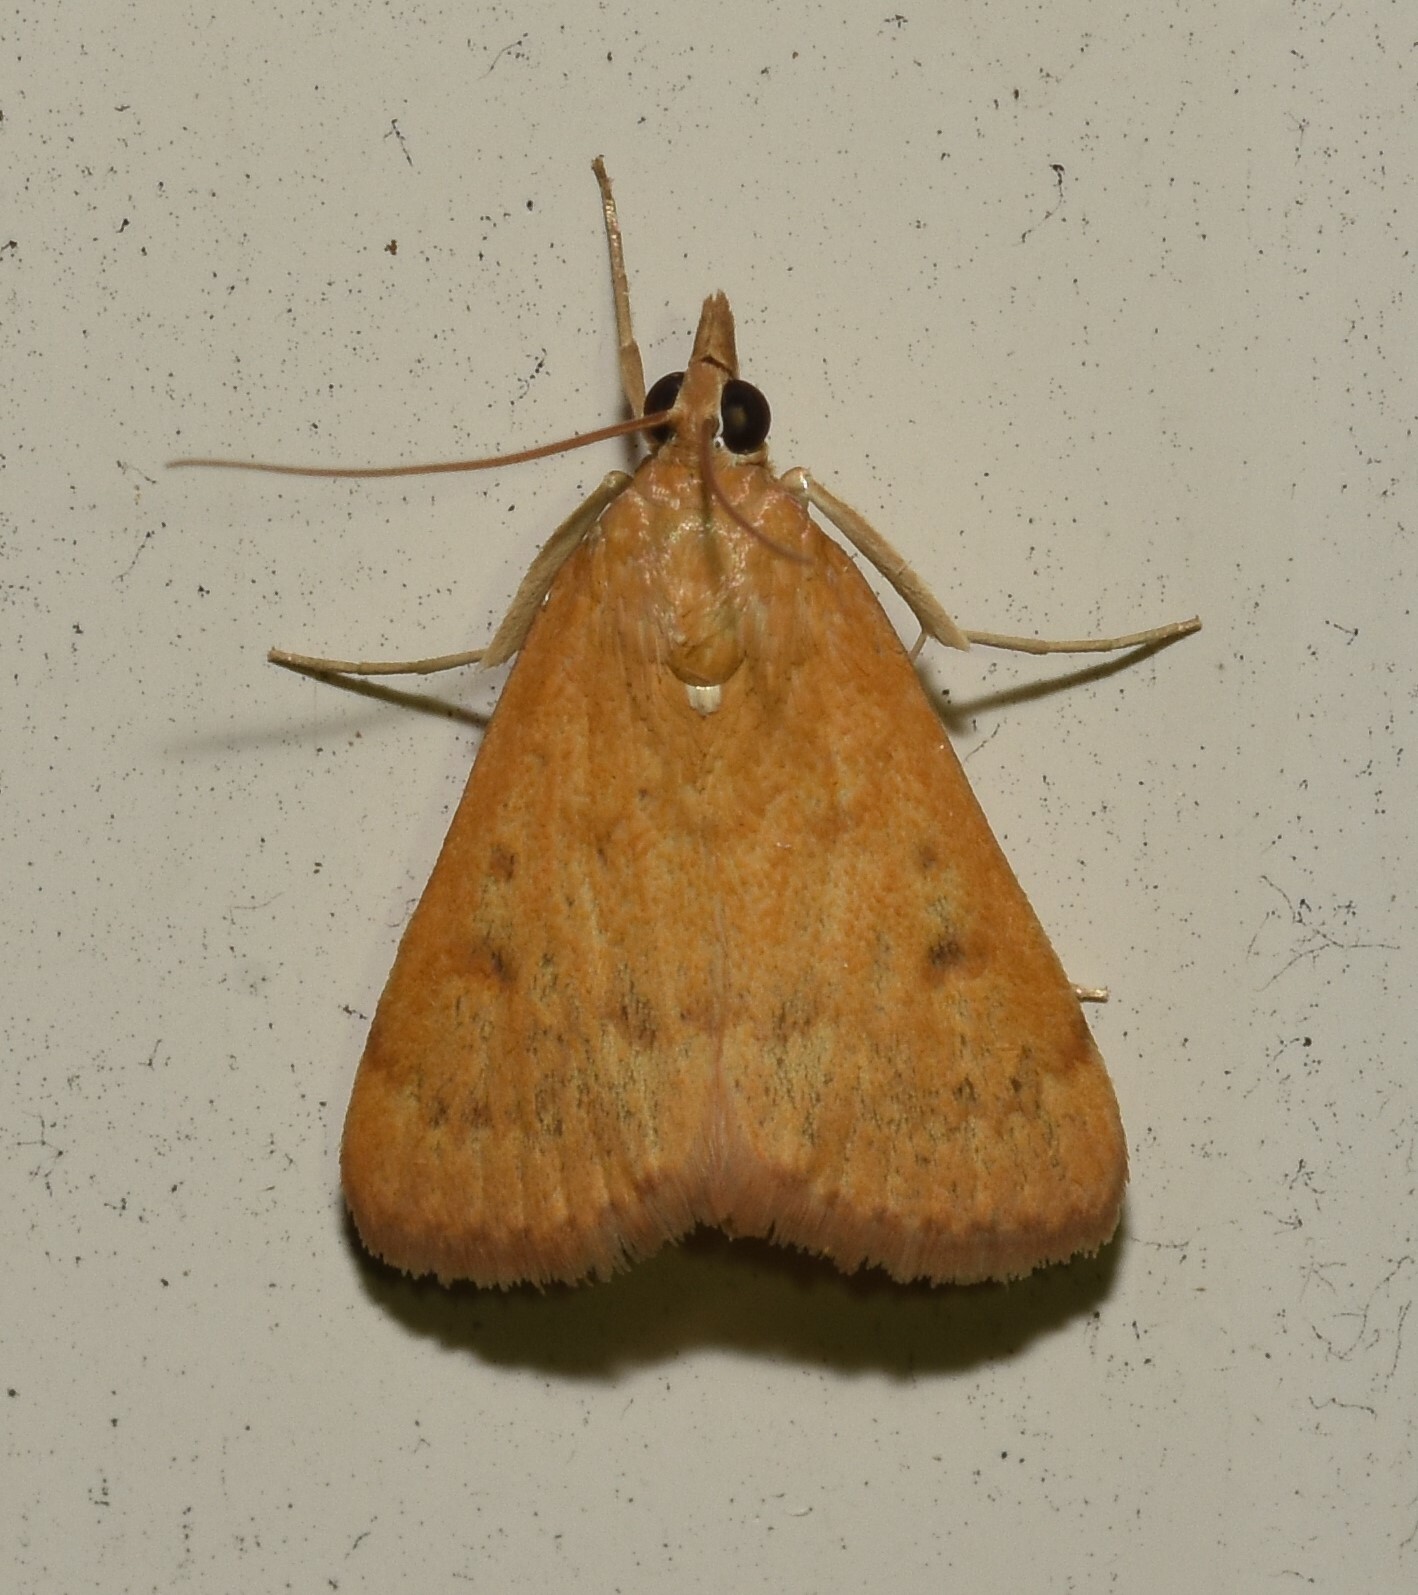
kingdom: Animalia
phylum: Arthropoda
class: Insecta
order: Lepidoptera
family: Crambidae
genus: Achyra
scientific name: Achyra rantalis
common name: Garden webworm
